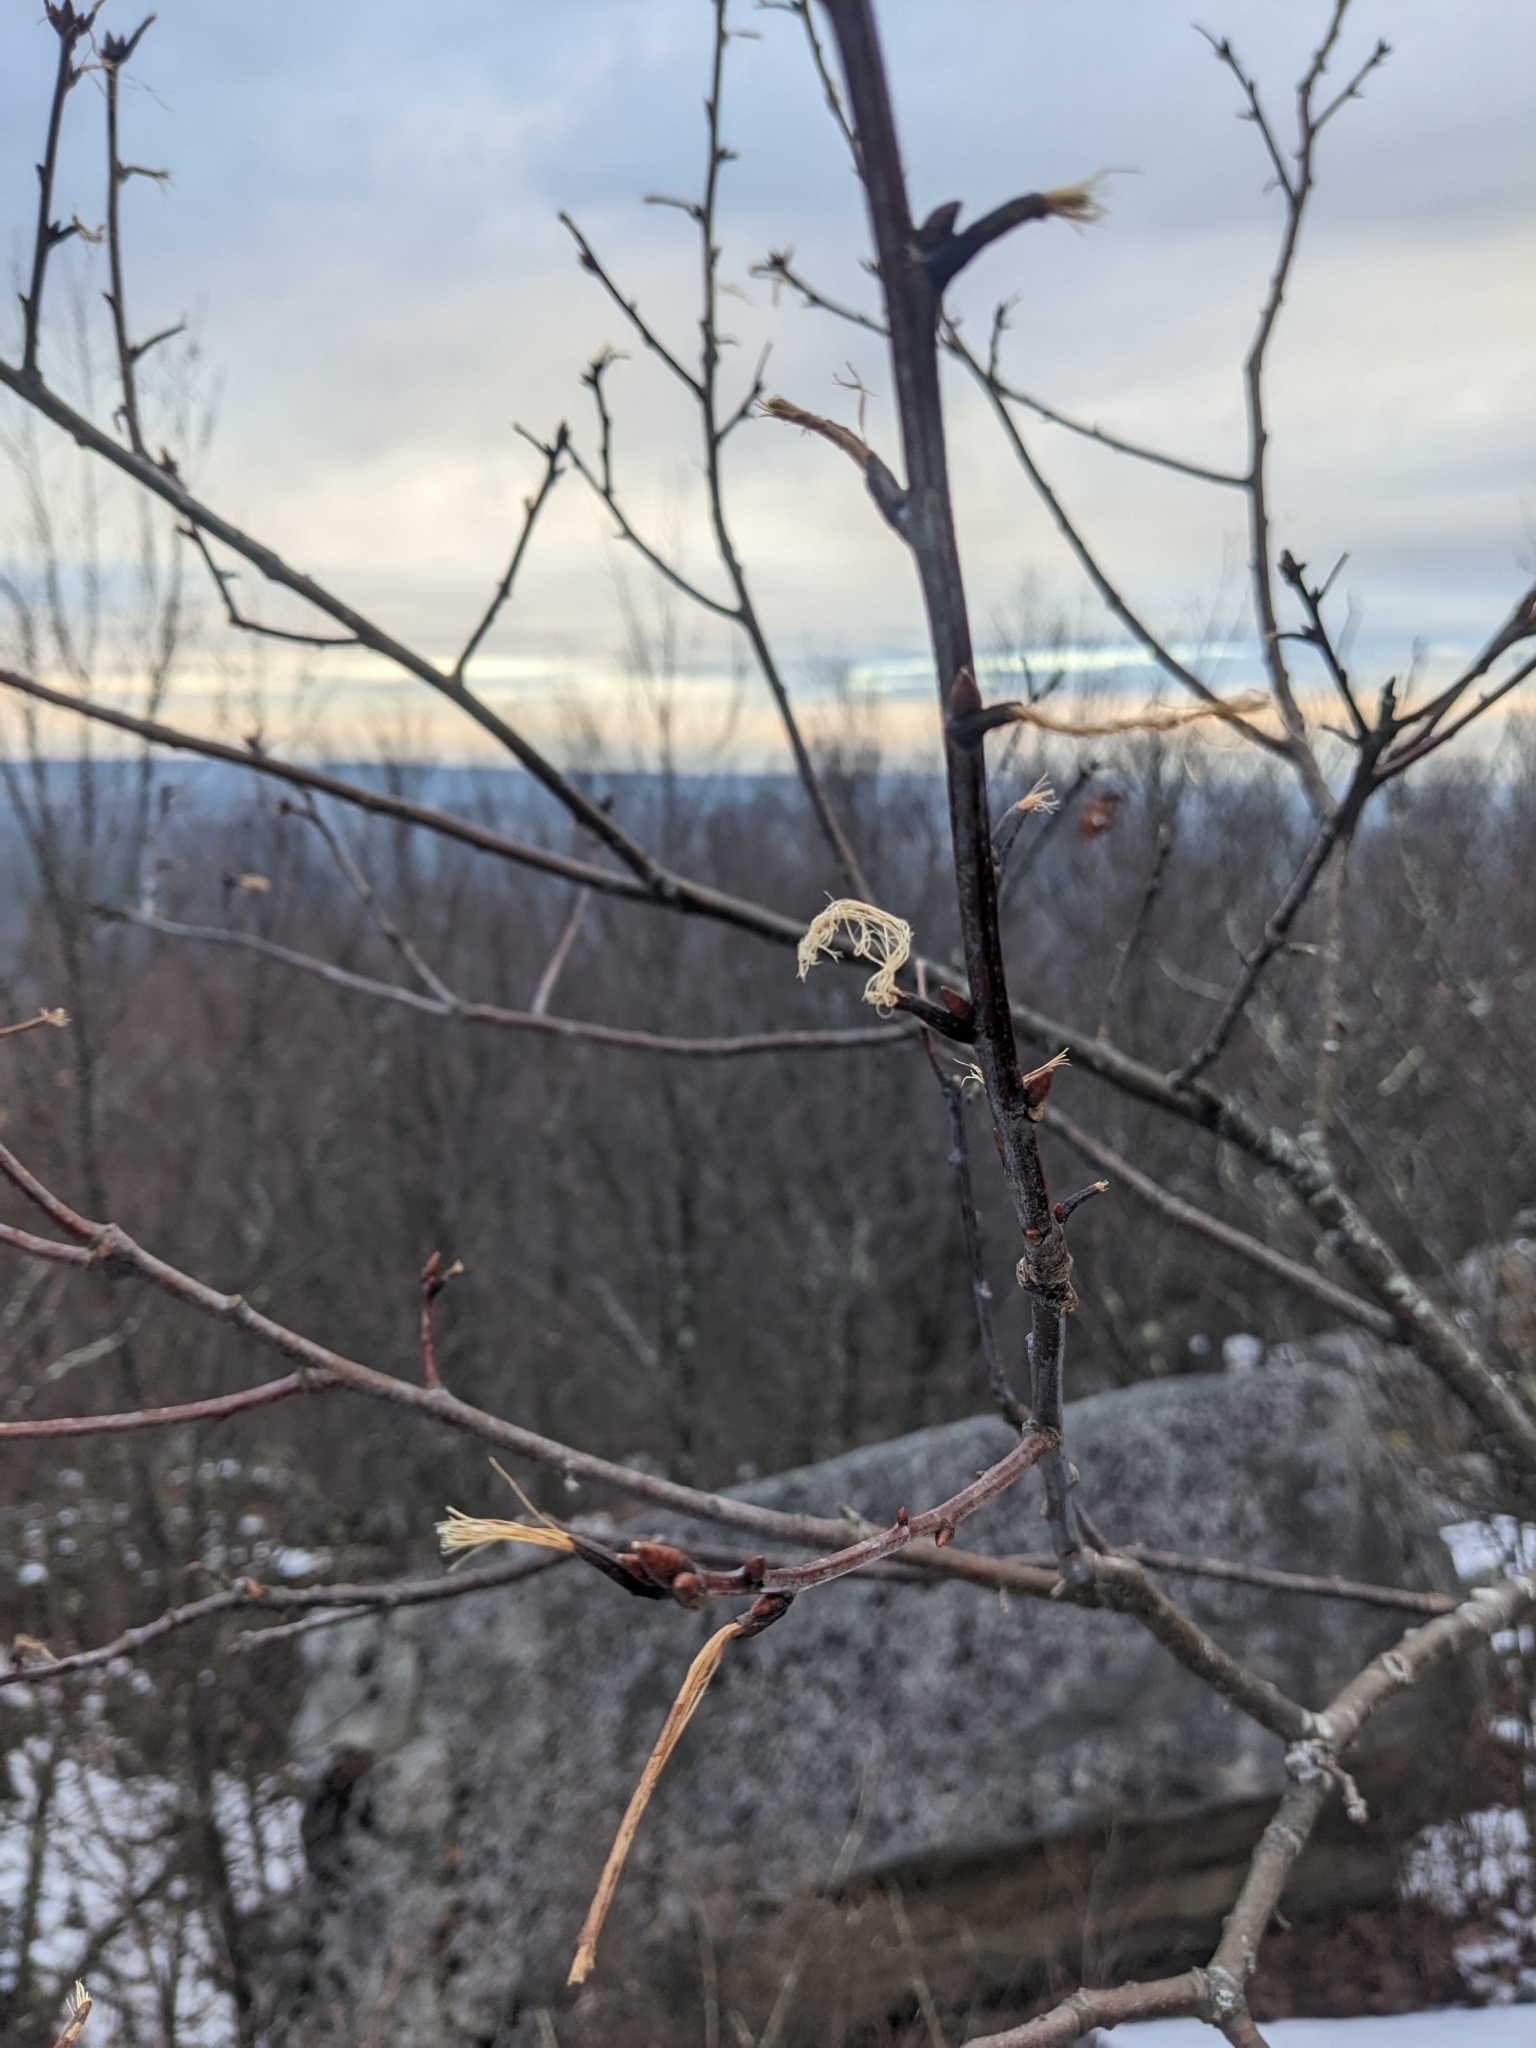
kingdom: Animalia
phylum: Chordata
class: Mammalia
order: Artiodactyla
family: Cervidae
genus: Odocoileus
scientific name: Odocoileus virginianus
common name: White-tailed deer
